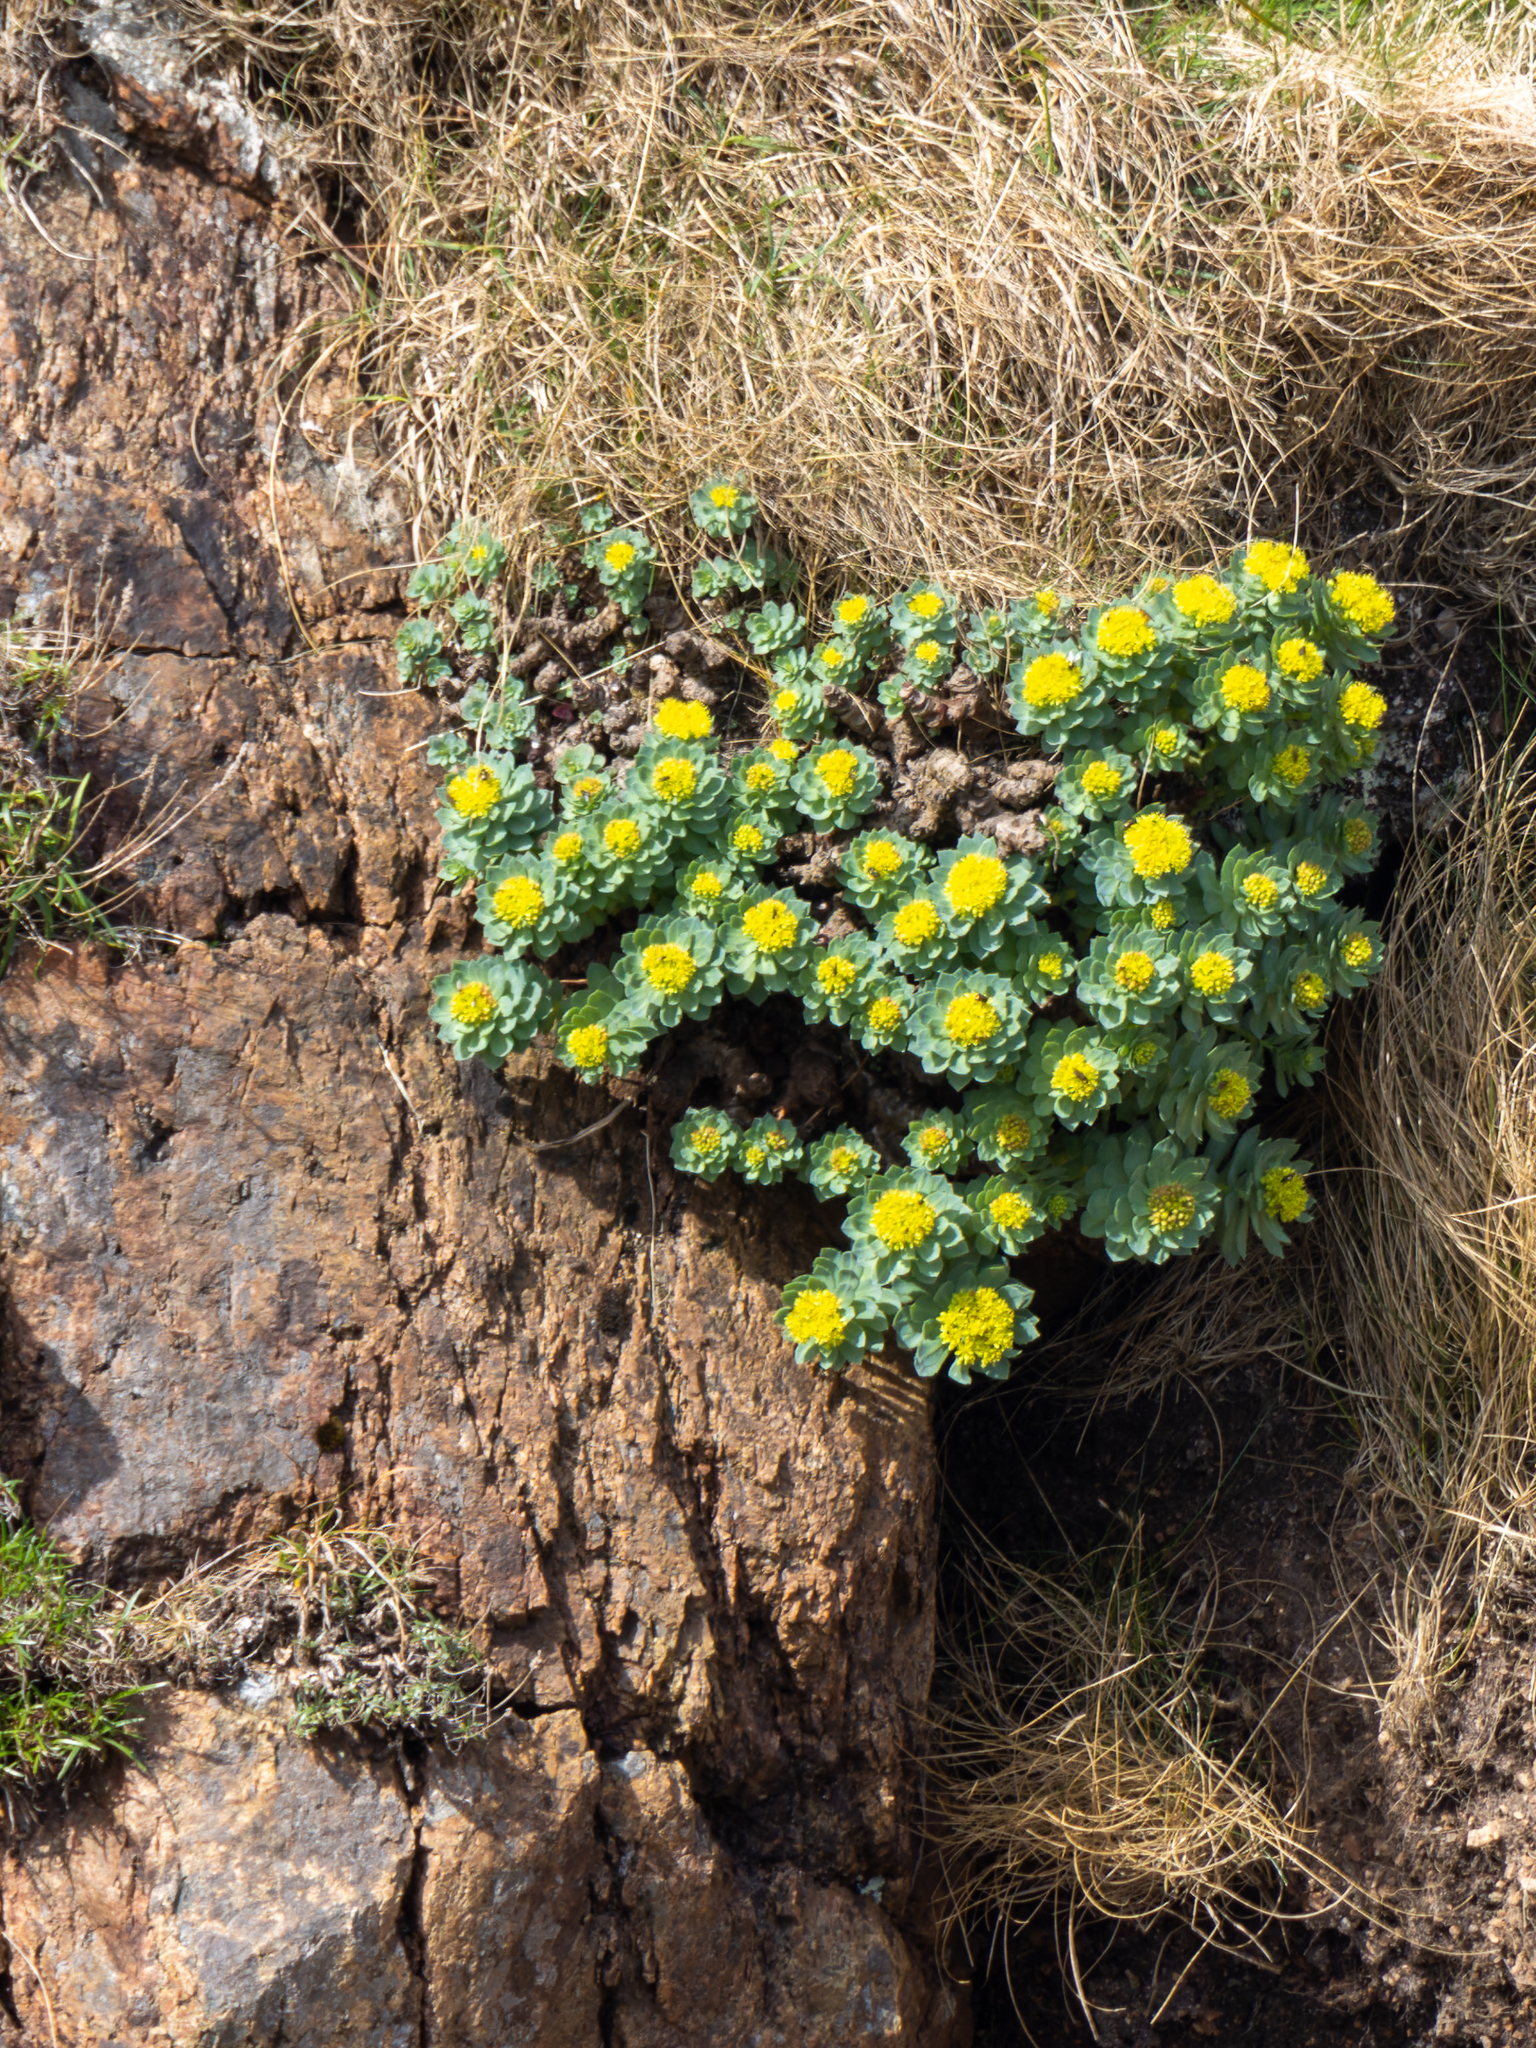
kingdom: Plantae
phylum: Tracheophyta
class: Magnoliopsida
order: Saxifragales
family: Crassulaceae
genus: Rhodiola
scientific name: Rhodiola rosea
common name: Roseroot
